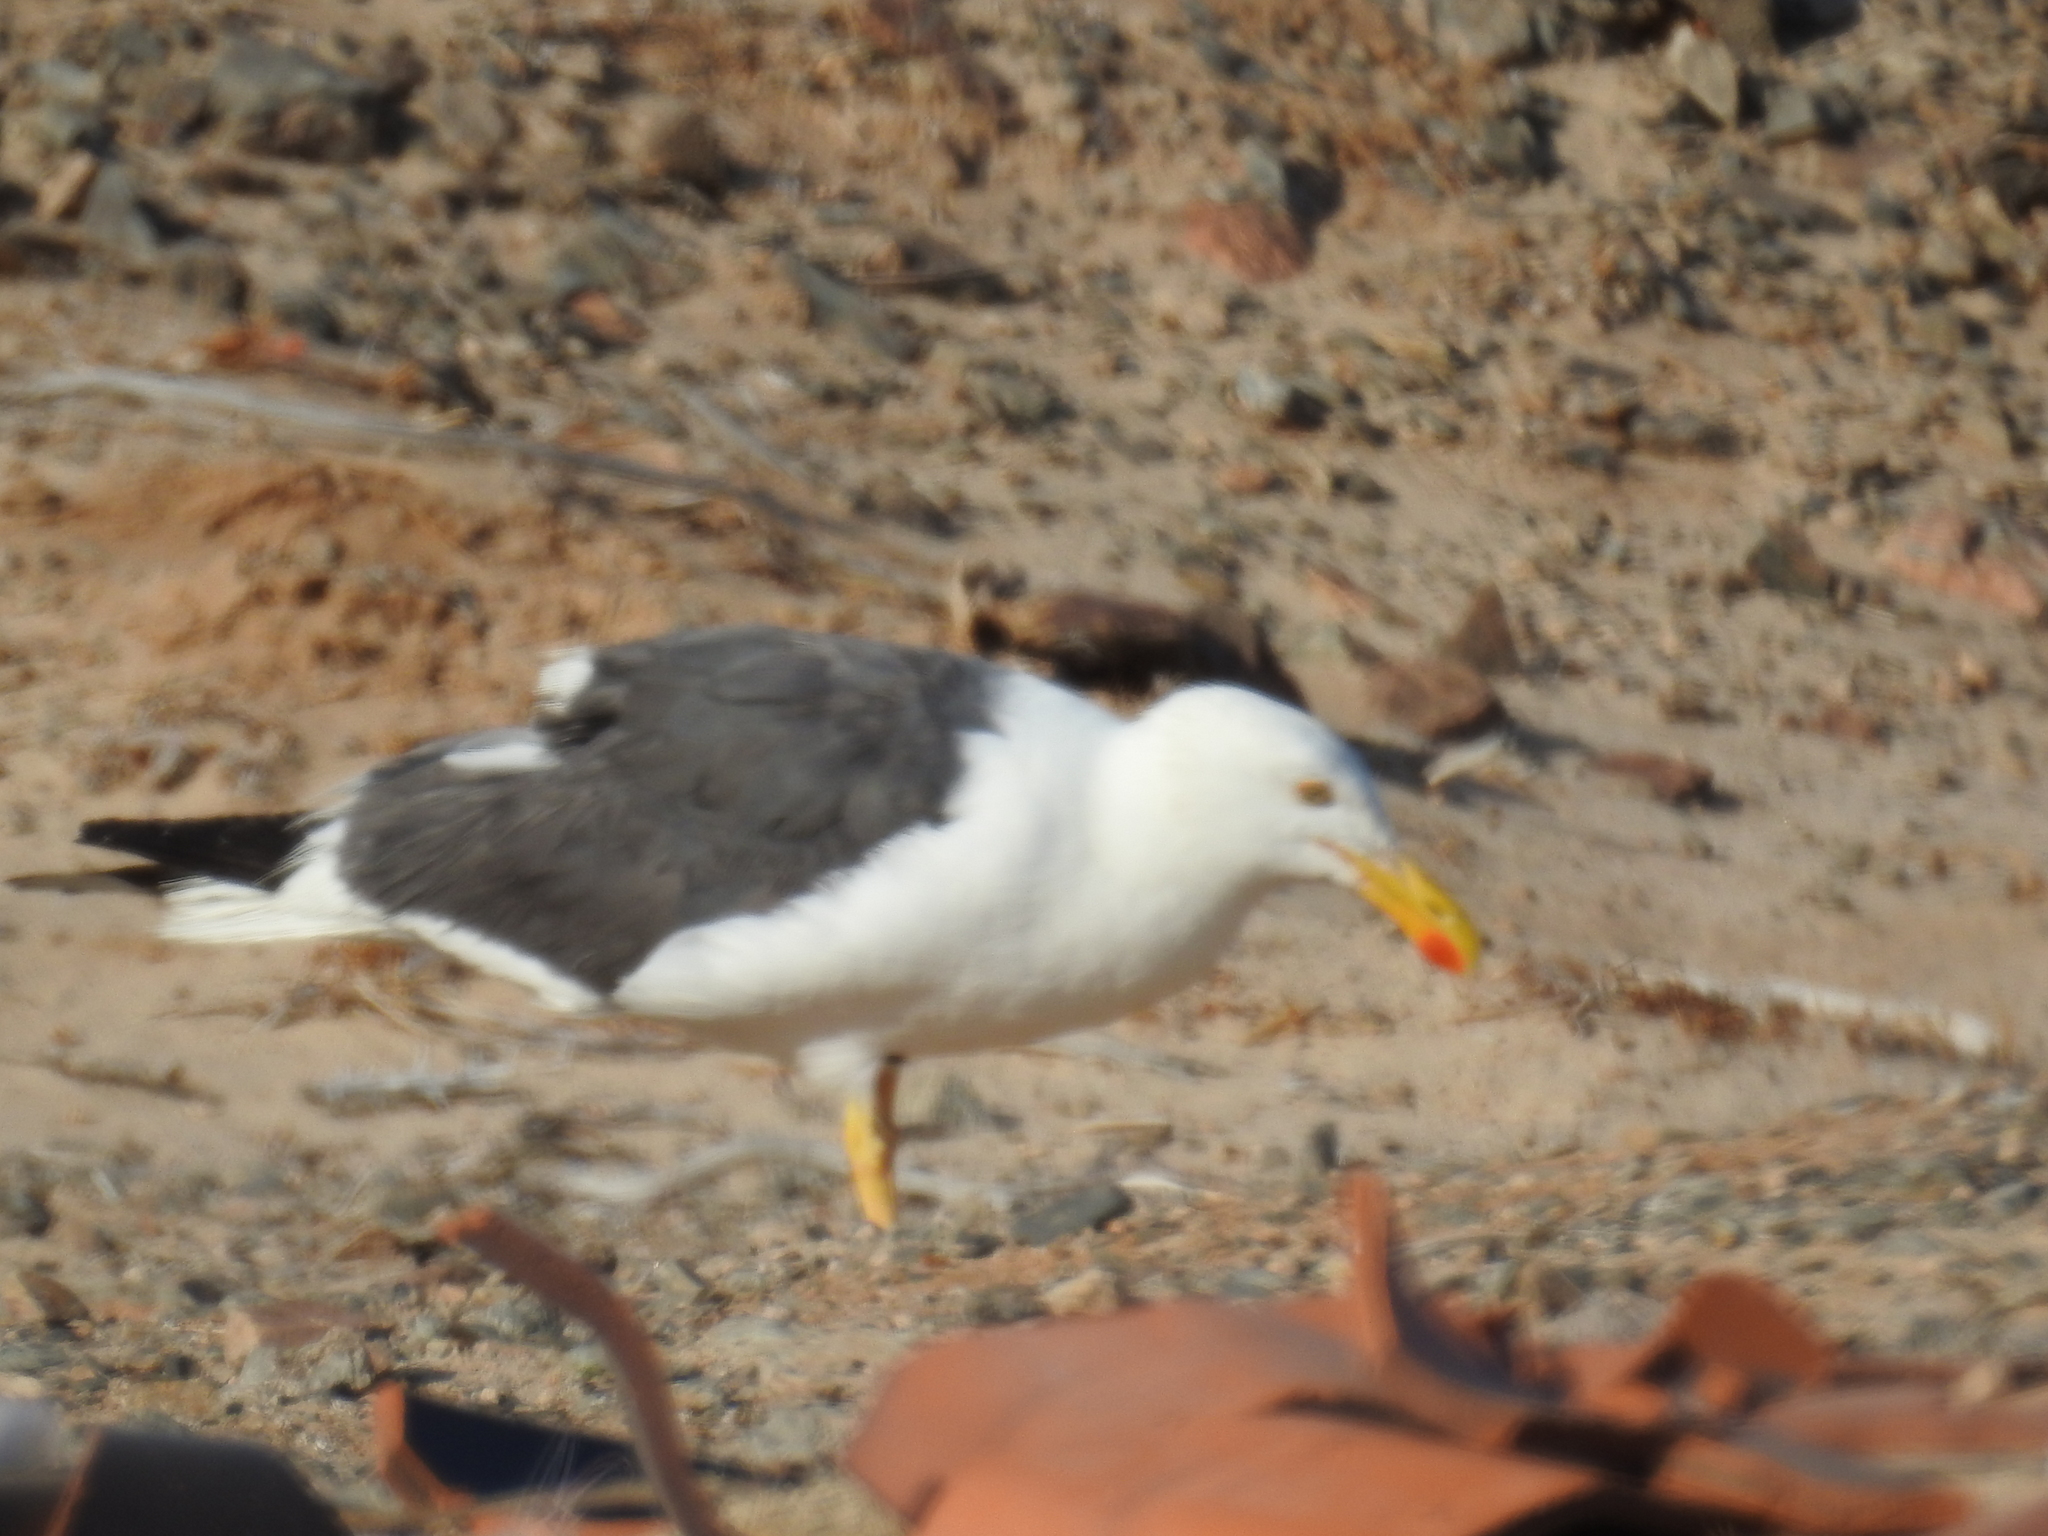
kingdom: Animalia
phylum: Chordata
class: Aves
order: Charadriiformes
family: Laridae
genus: Larus
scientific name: Larus livens
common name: Yellow-footed gull
